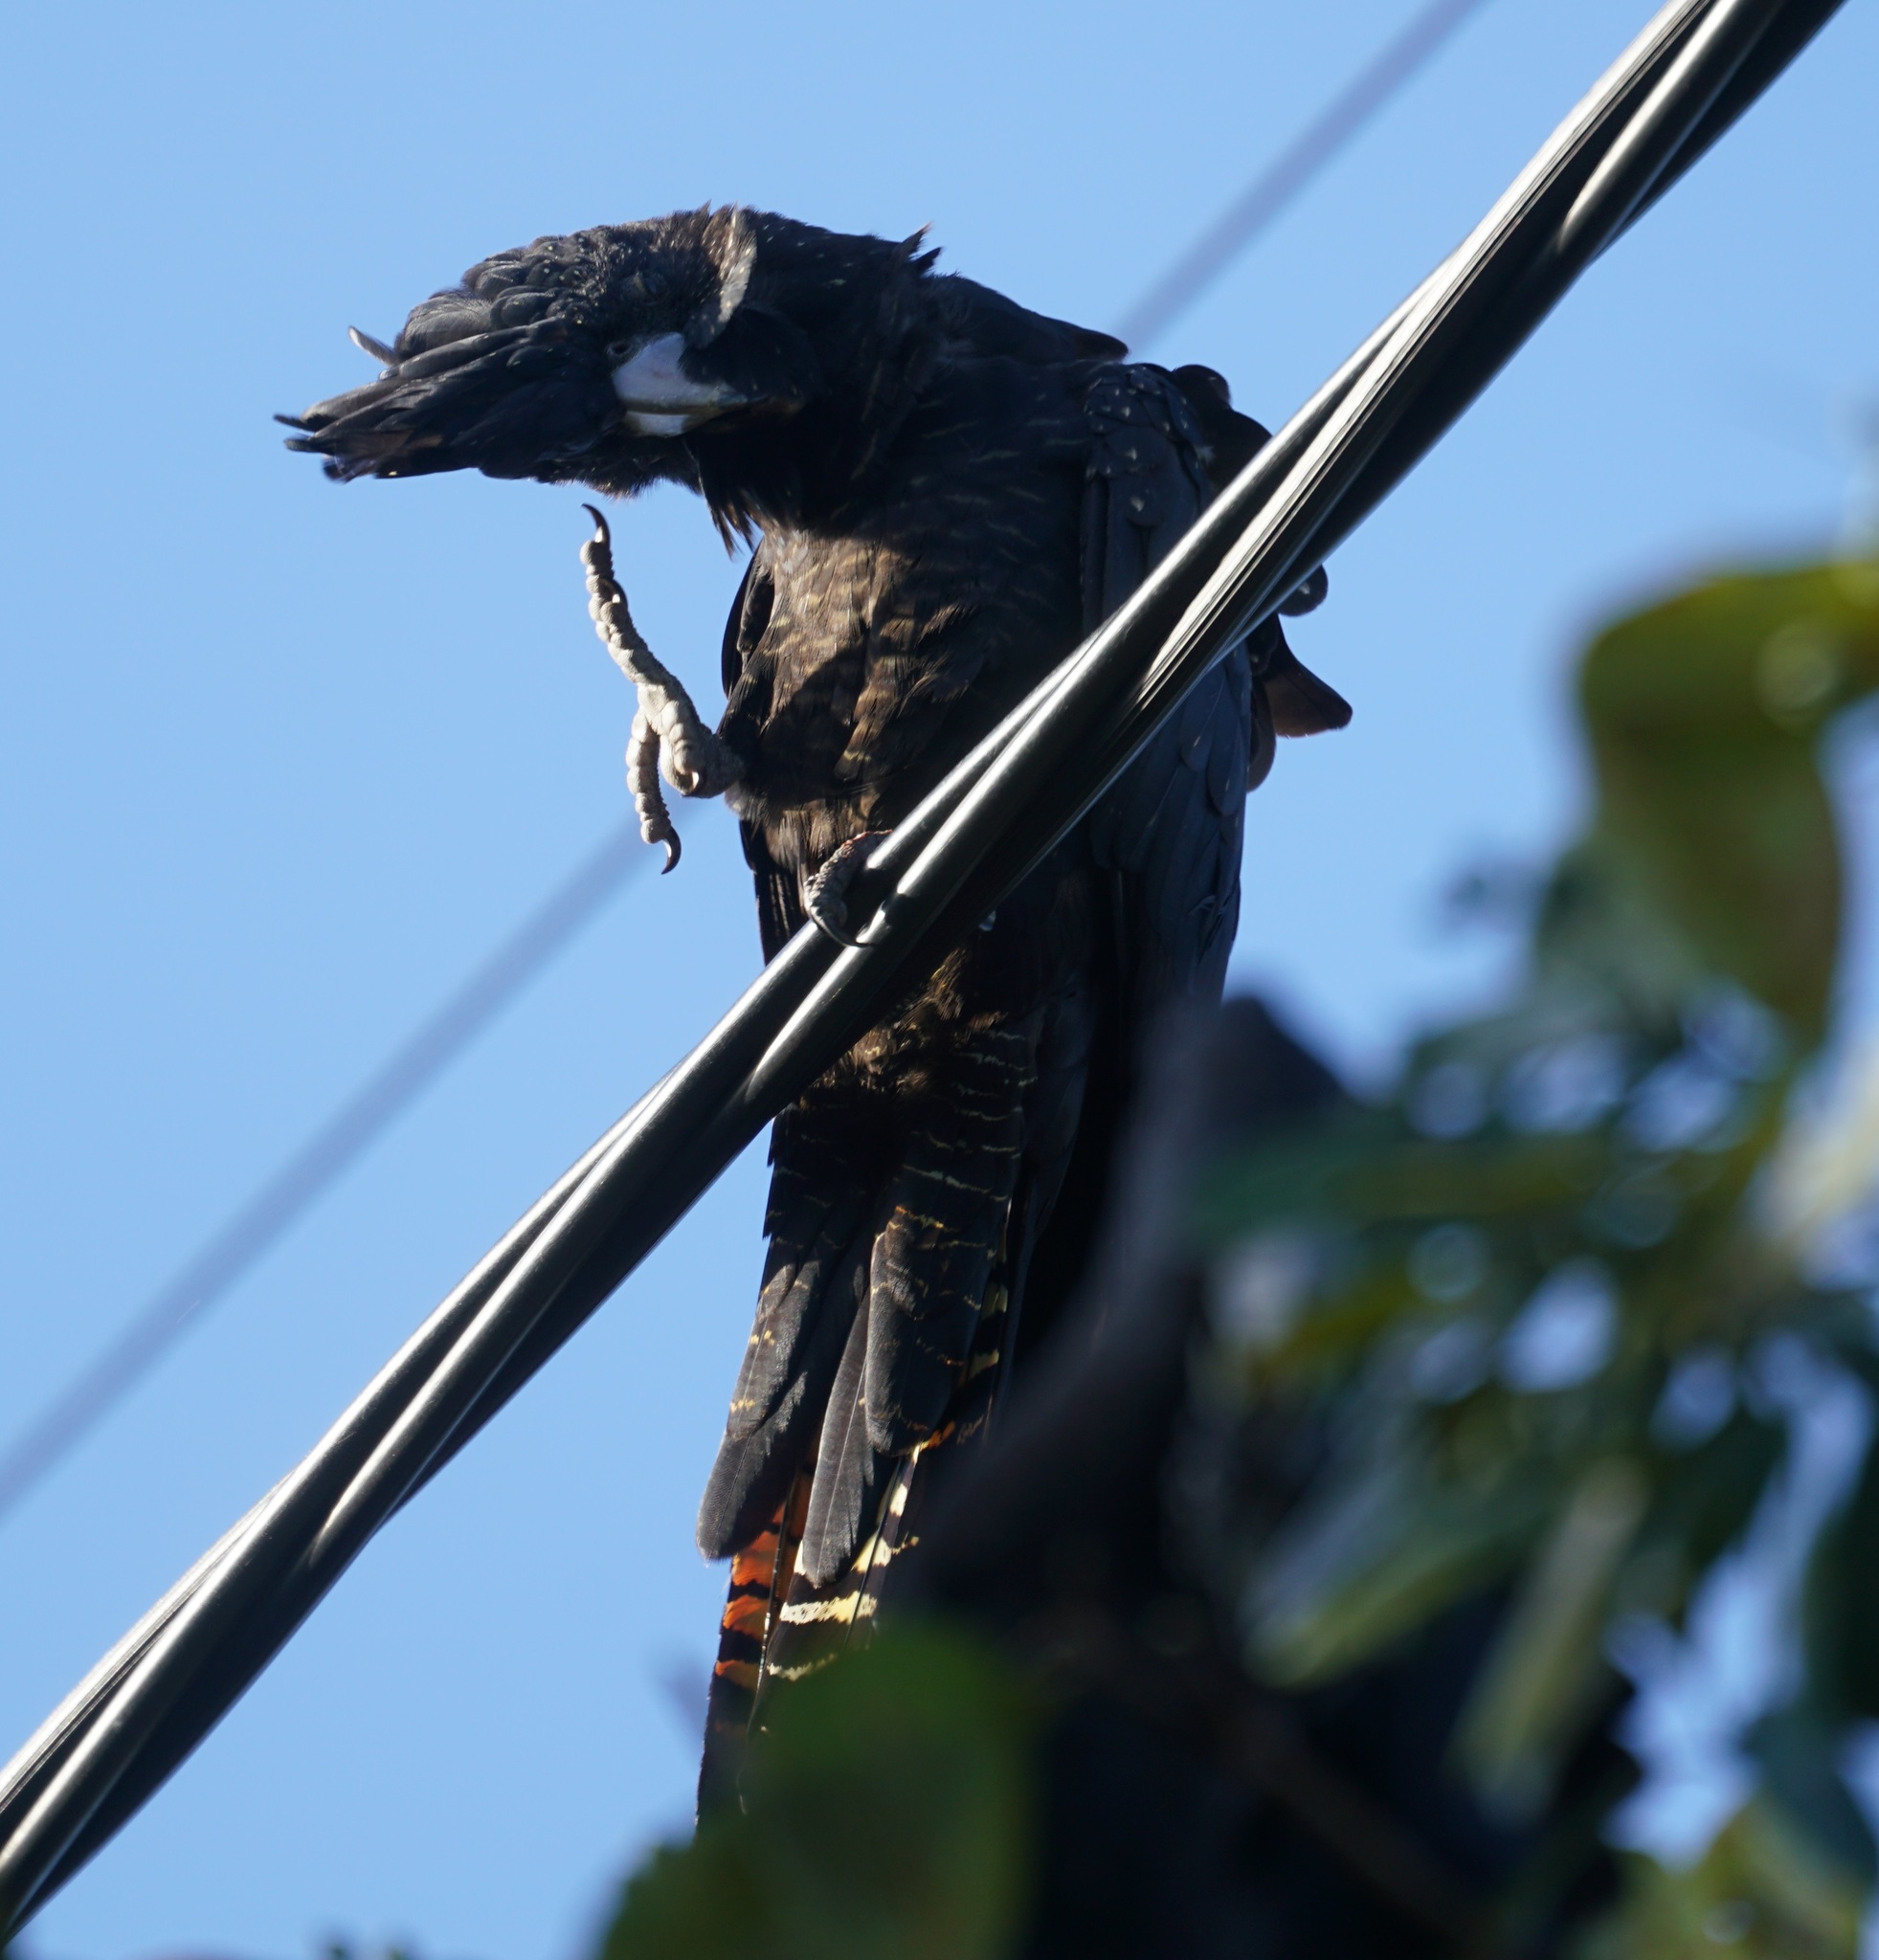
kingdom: Animalia
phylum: Chordata
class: Aves
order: Psittaciformes
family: Psittacidae
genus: Calyptorhynchus
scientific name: Calyptorhynchus banksii
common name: Red-tailed black cockatoo
